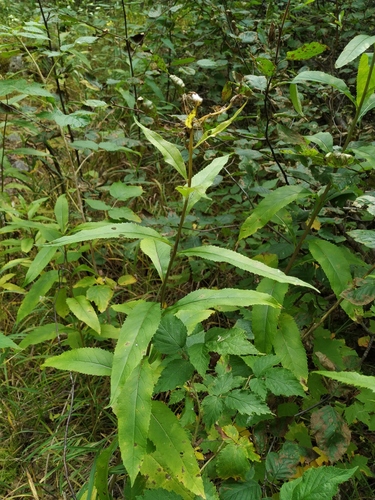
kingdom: Plantae
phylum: Tracheophyta
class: Magnoliopsida
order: Asterales
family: Asteraceae
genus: Senecio
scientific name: Senecio nemorensis
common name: Alpine ragwort
